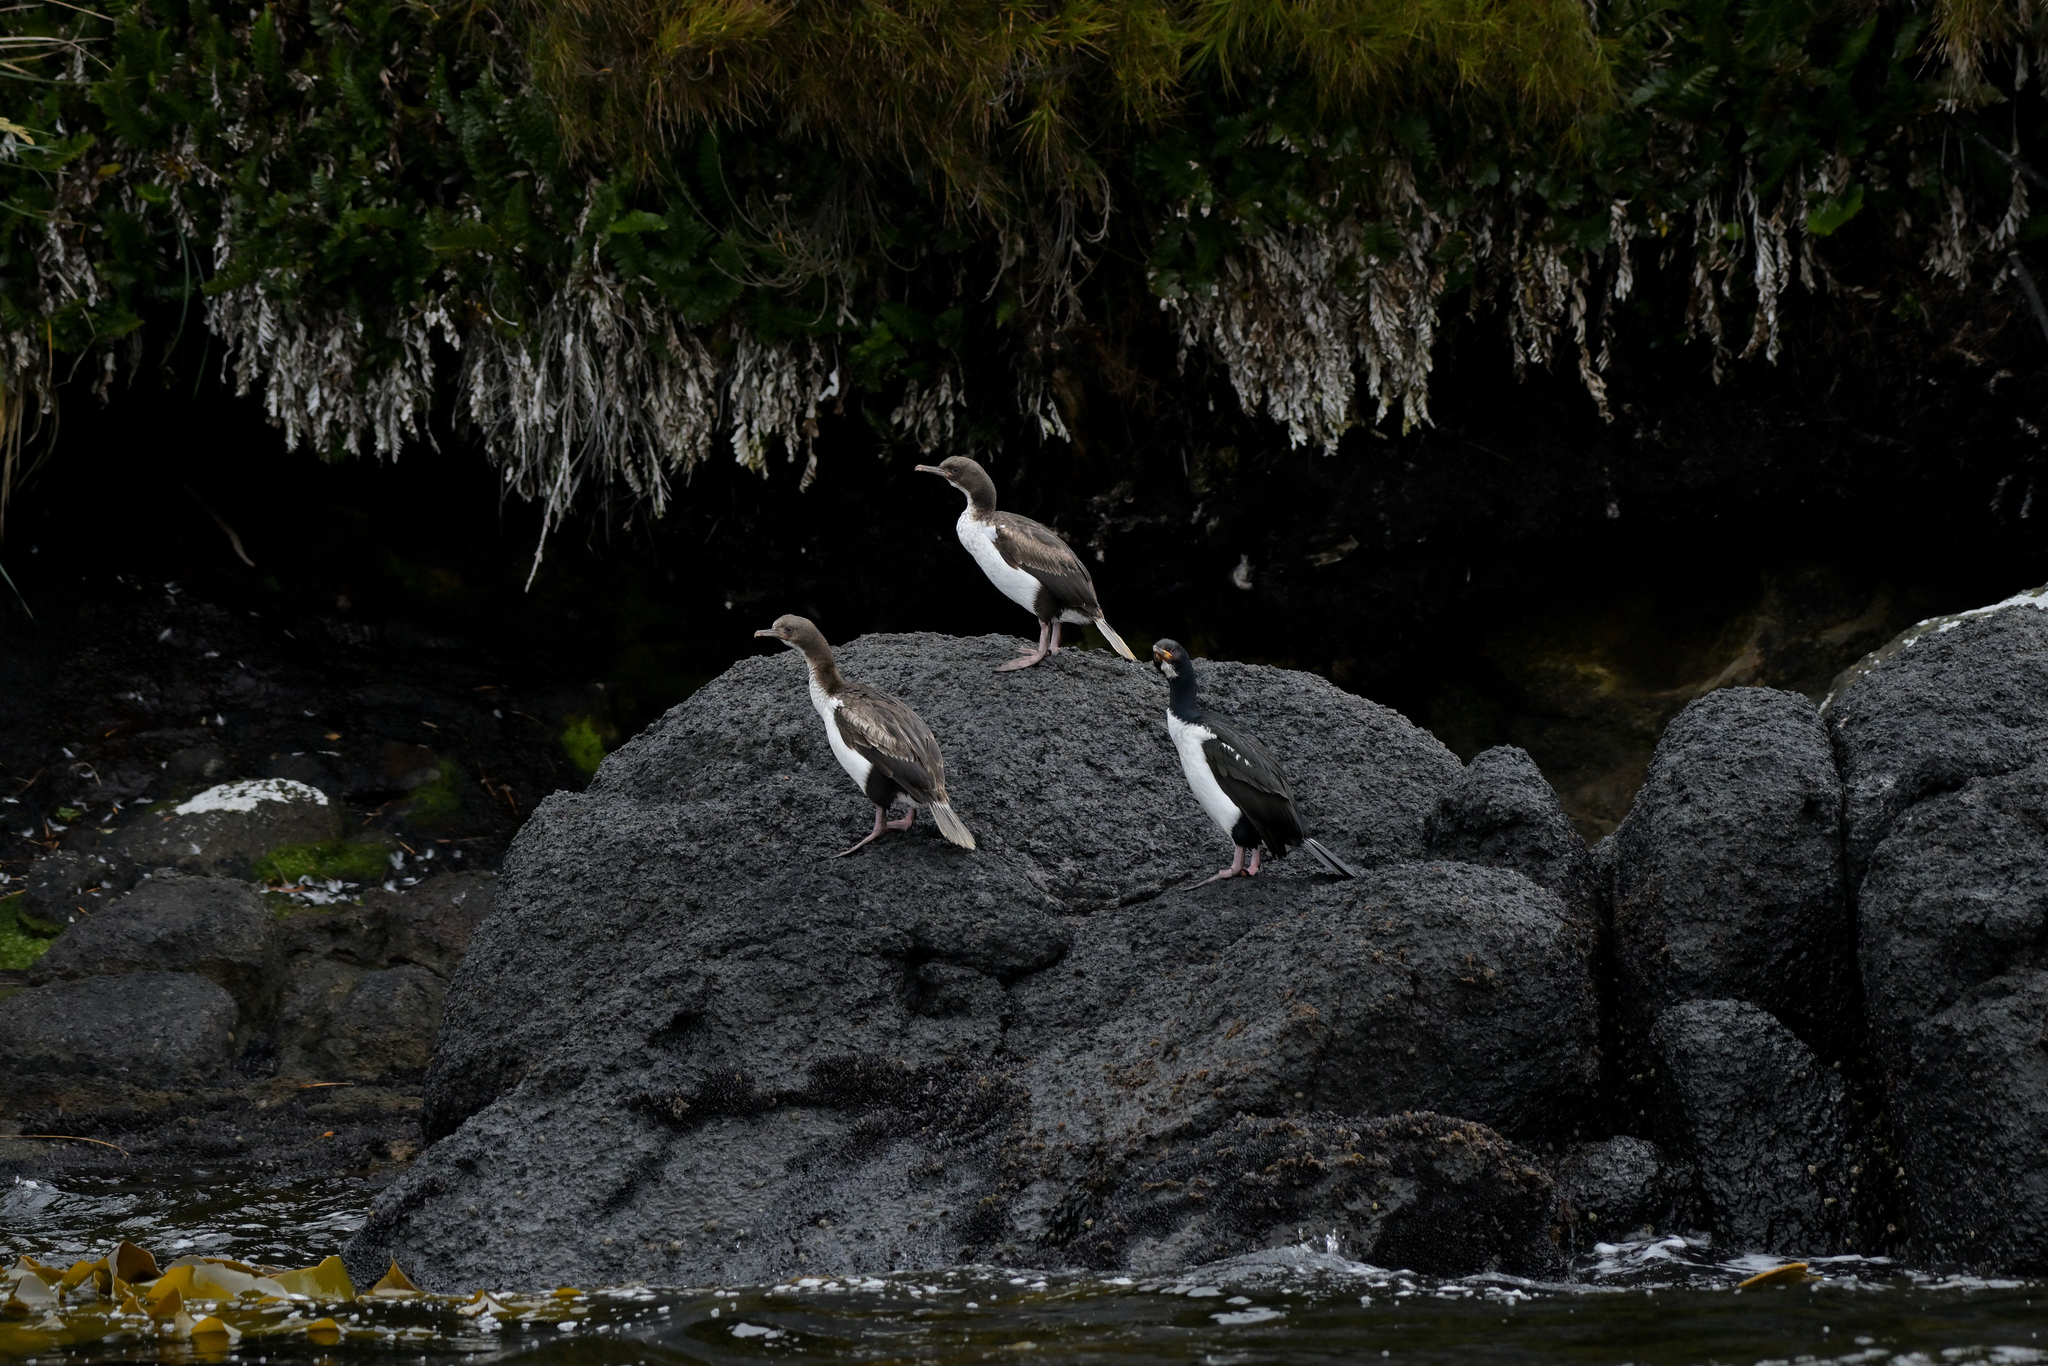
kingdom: Animalia
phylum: Chordata
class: Aves
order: Suliformes
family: Phalacrocoracidae
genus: Leucocarbo
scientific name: Leucocarbo colensoi
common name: Auckland shag
